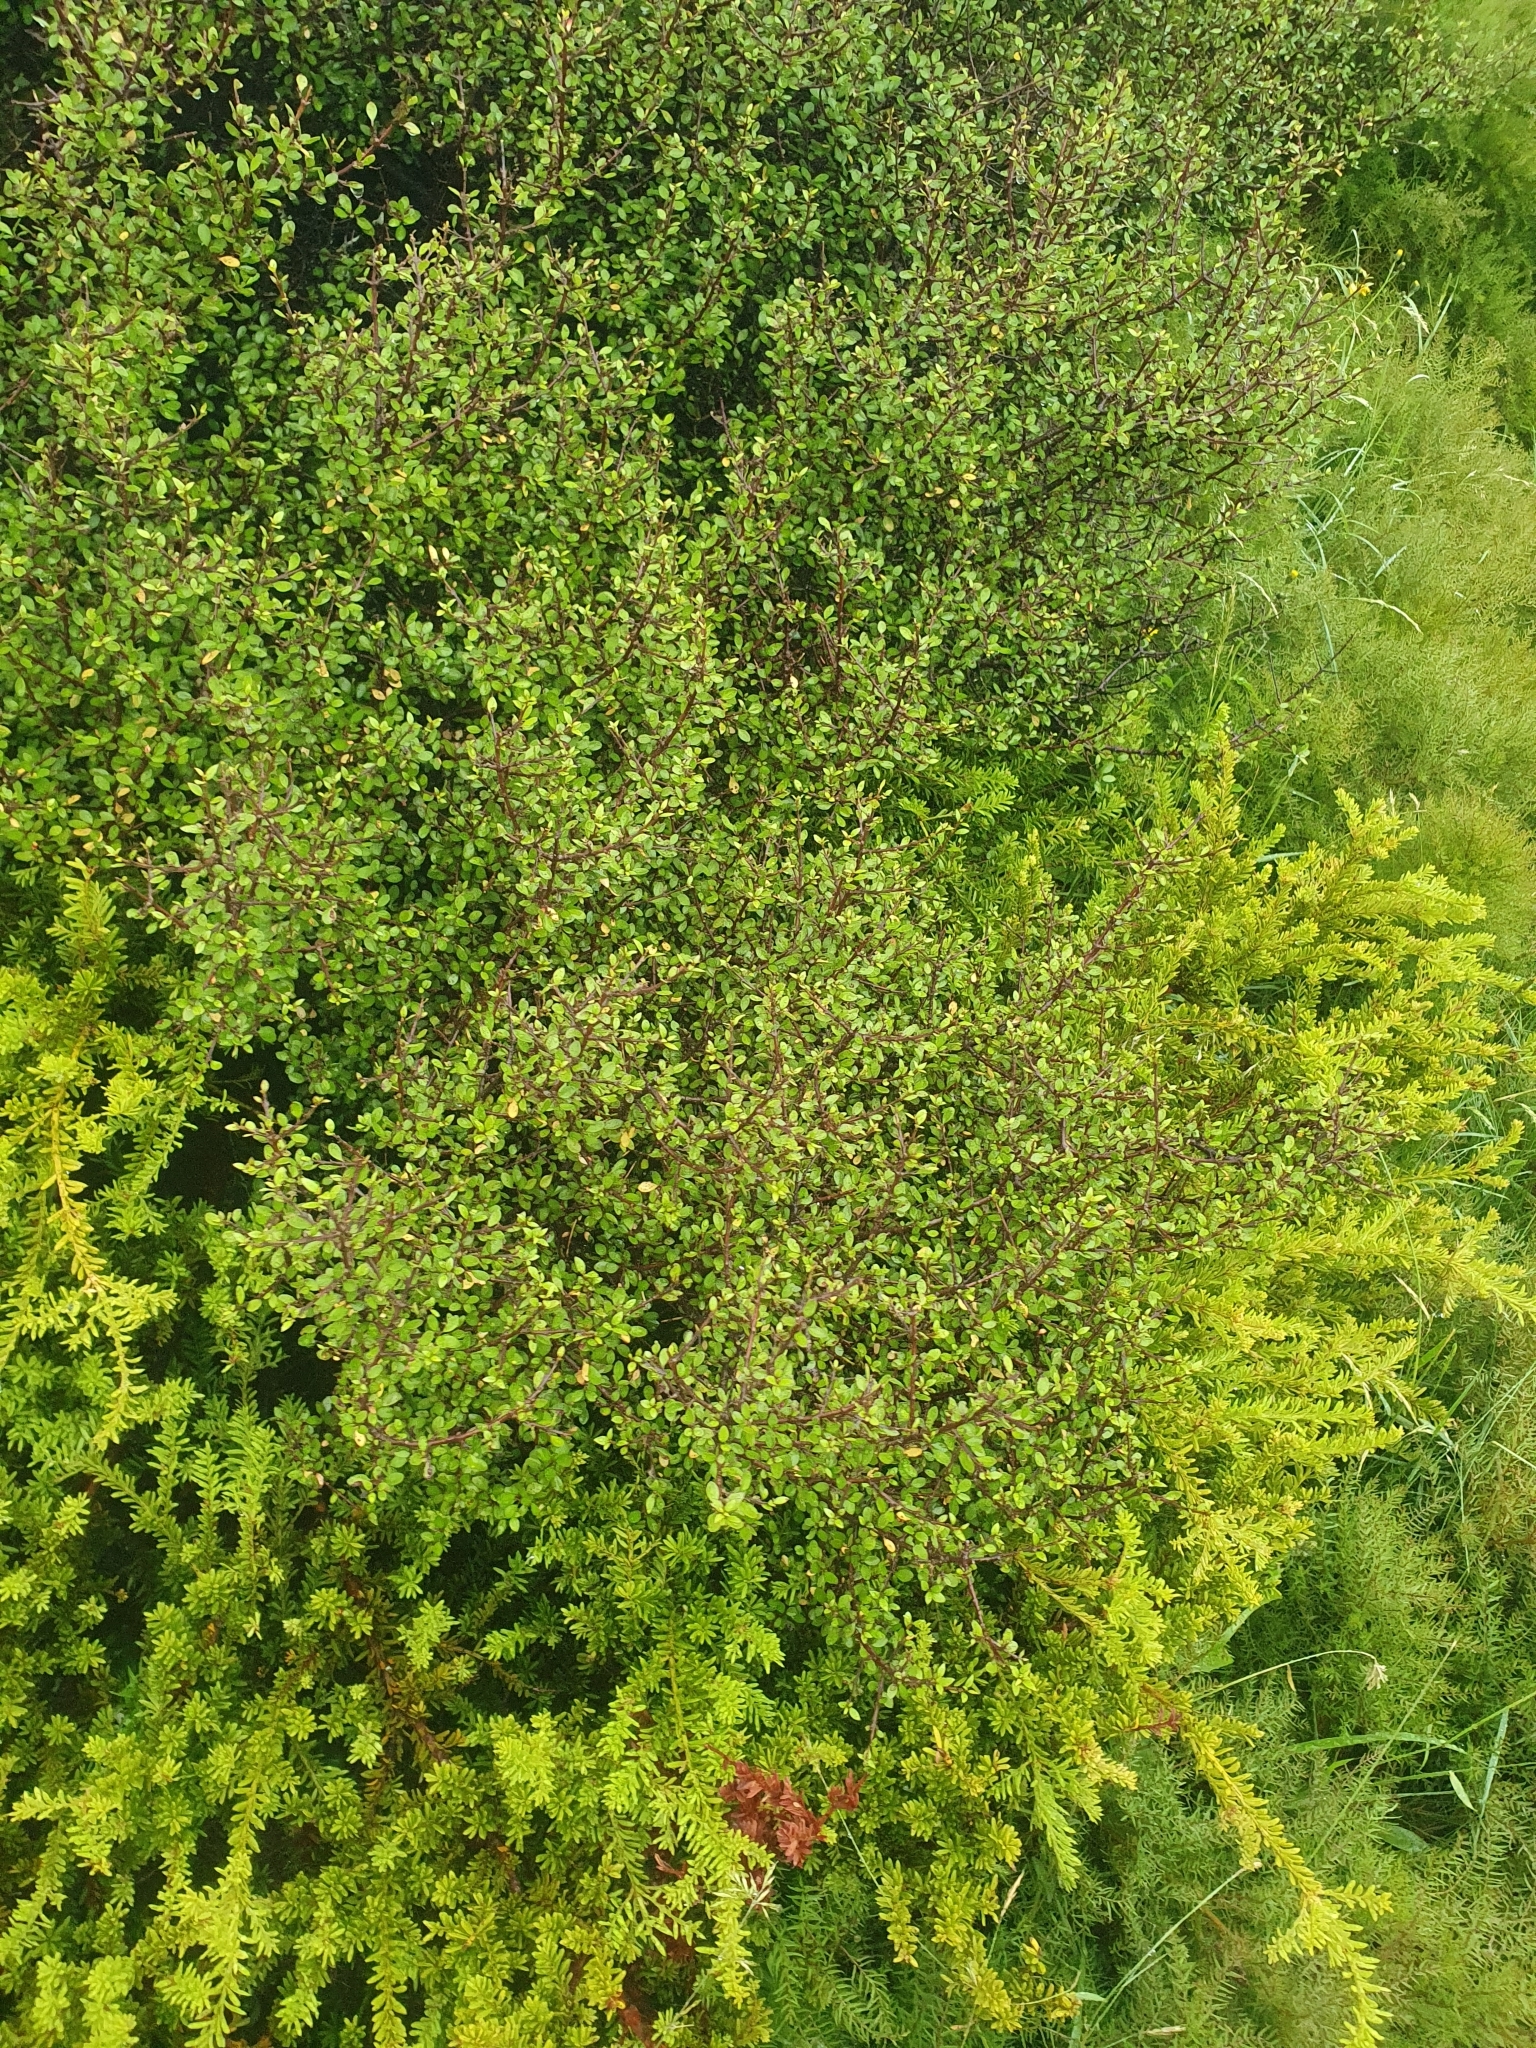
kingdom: Plantae
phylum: Tracheophyta
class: Magnoliopsida
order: Oxalidales
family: Elaeocarpaceae
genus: Aristotelia
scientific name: Aristotelia fruticosa
